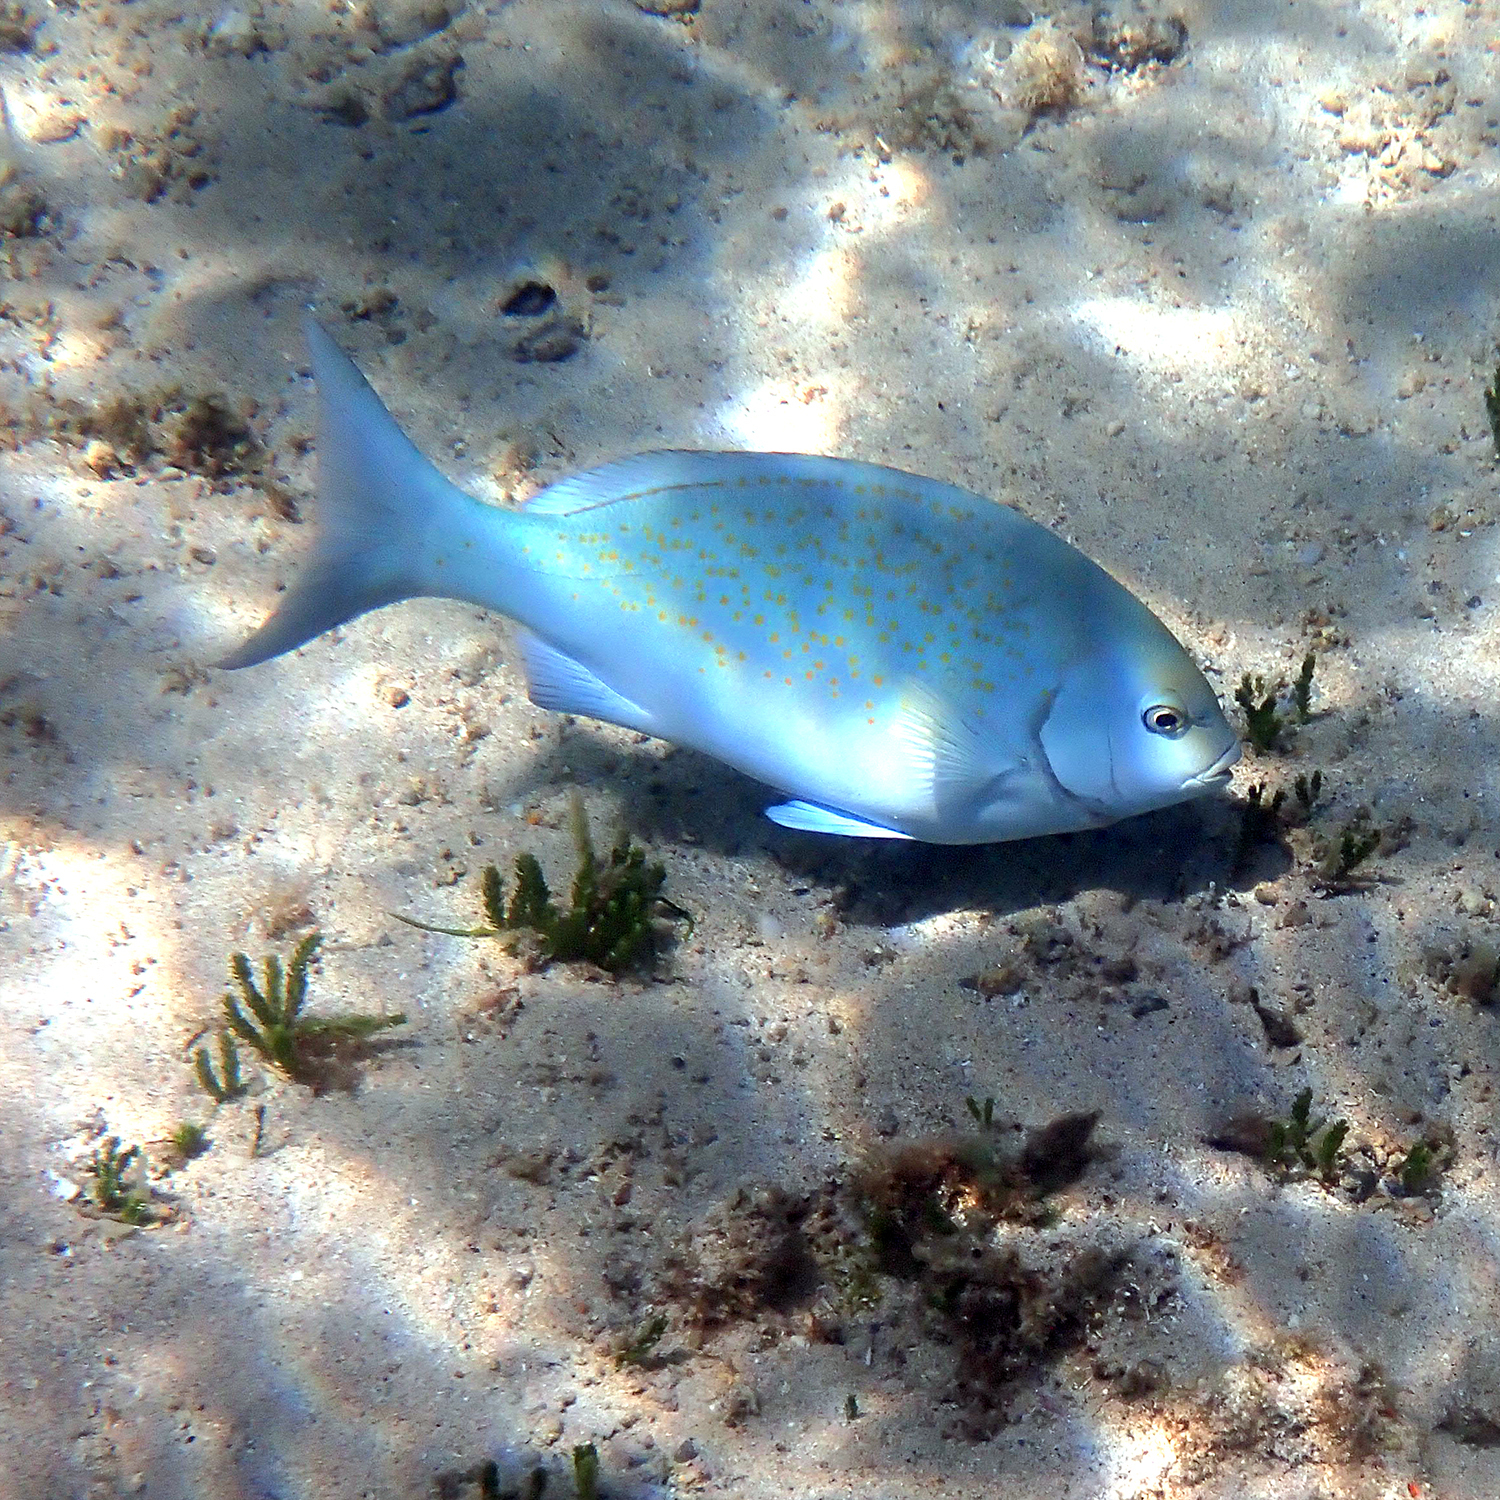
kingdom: Animalia
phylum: Chordata
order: Perciformes
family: Kyphosidae
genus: Girella
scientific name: Girella cyanea
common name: Bluefish
